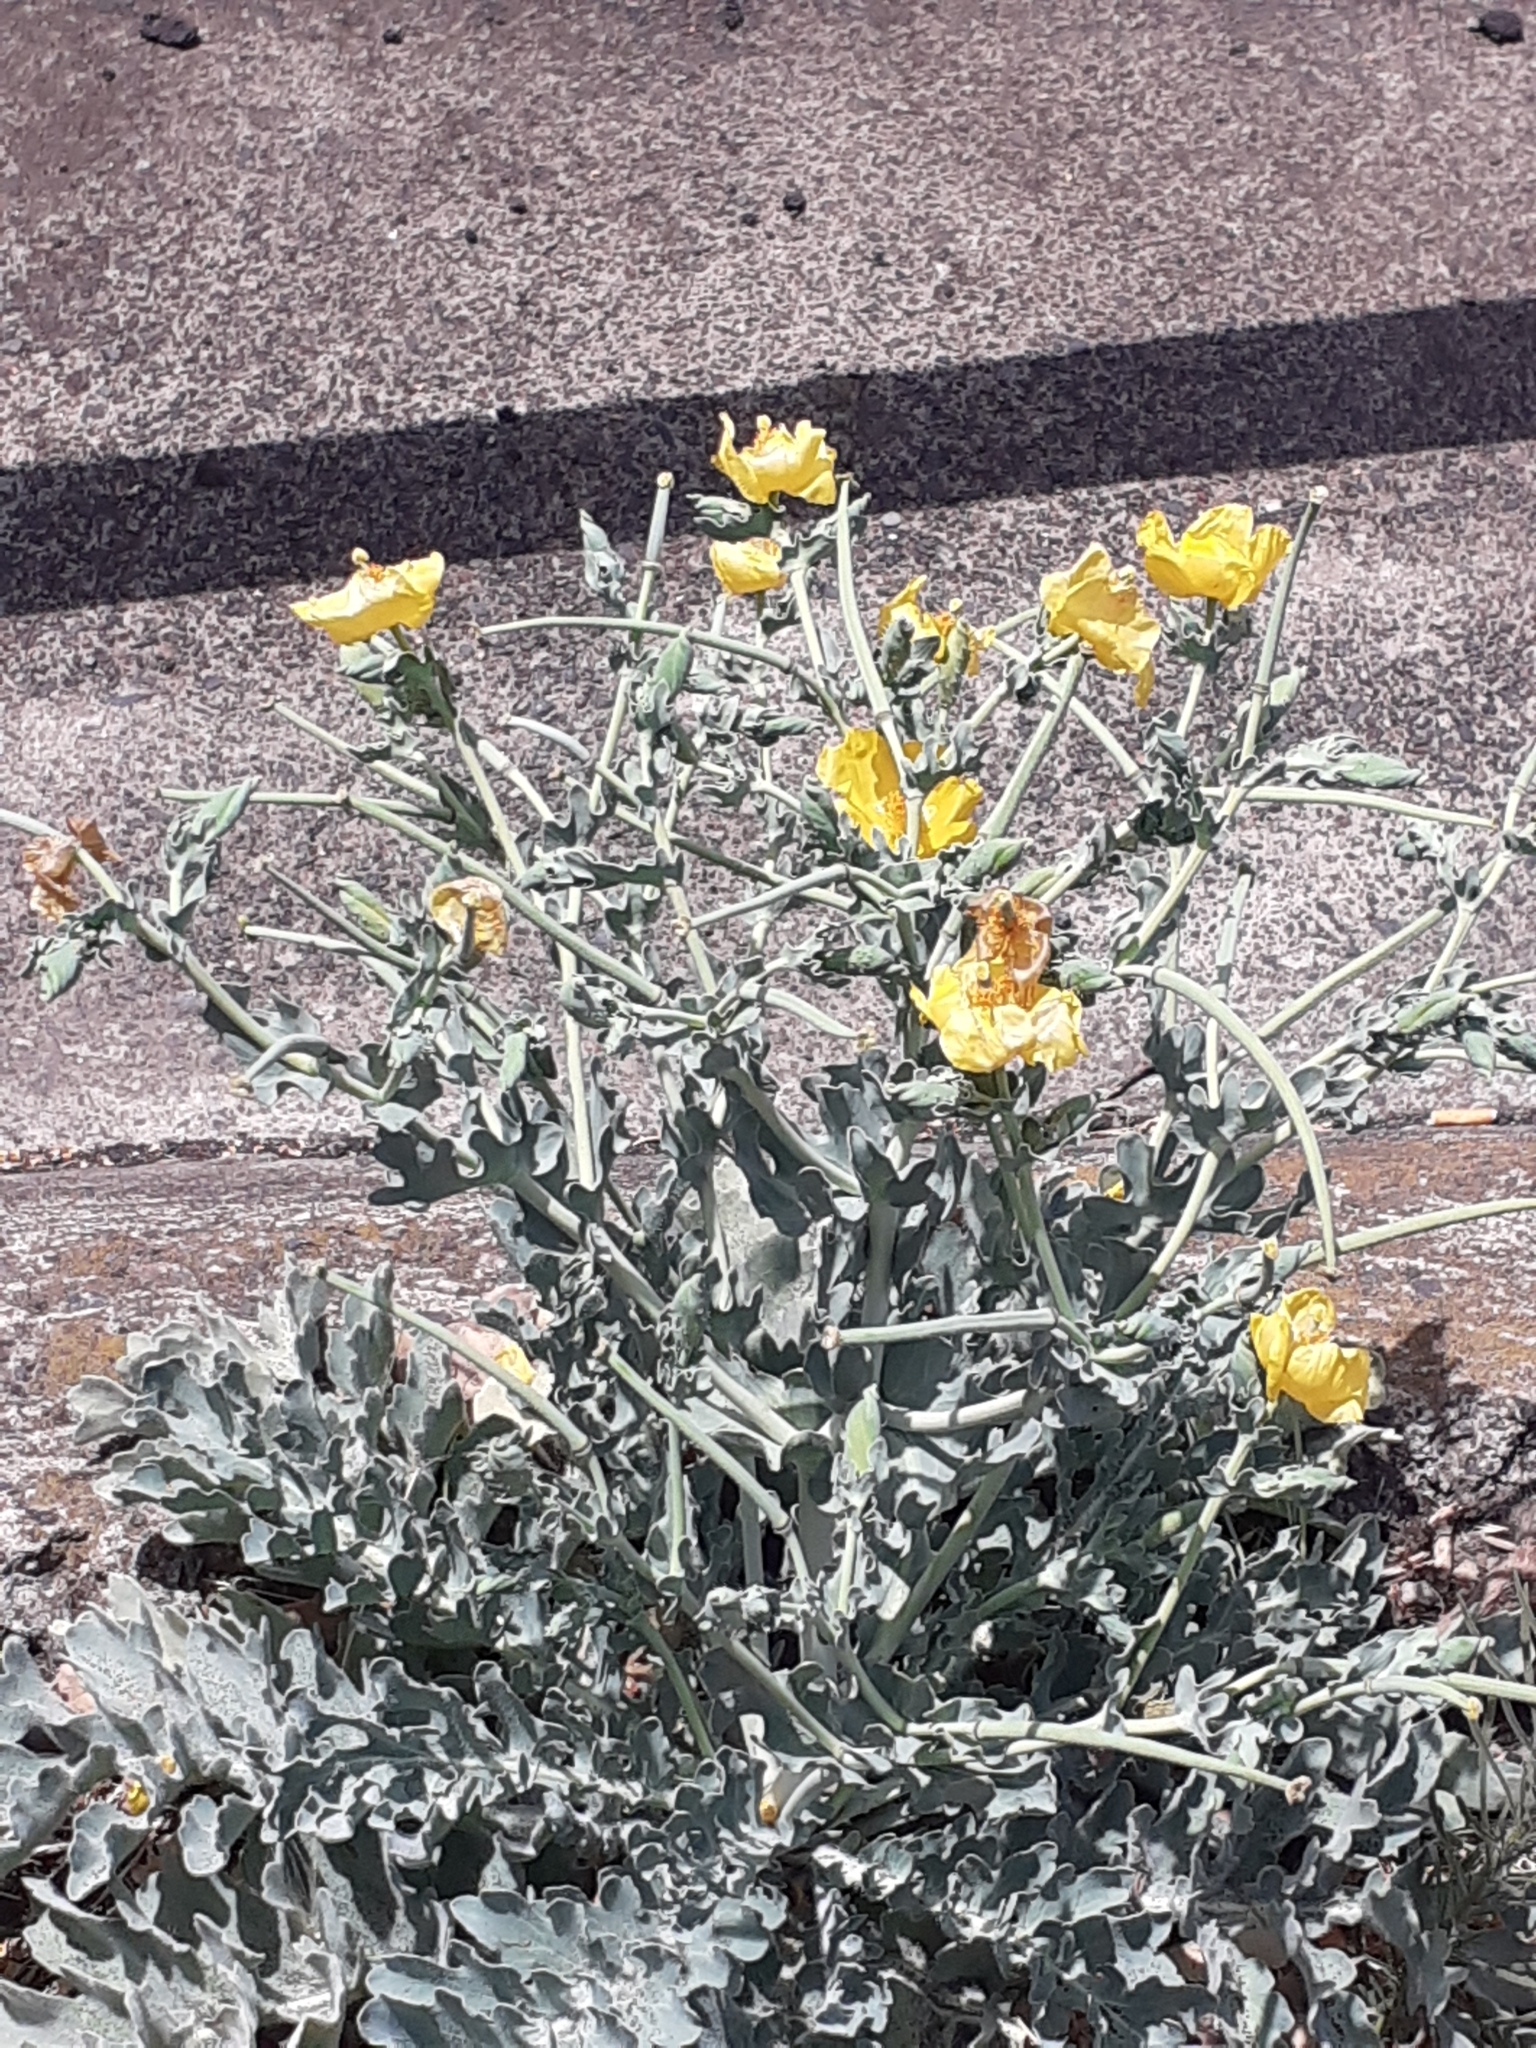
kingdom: Plantae
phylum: Tracheophyta
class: Magnoliopsida
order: Ranunculales
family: Papaveraceae
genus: Glaucium
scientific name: Glaucium flavum
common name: Yellow horned-poppy
